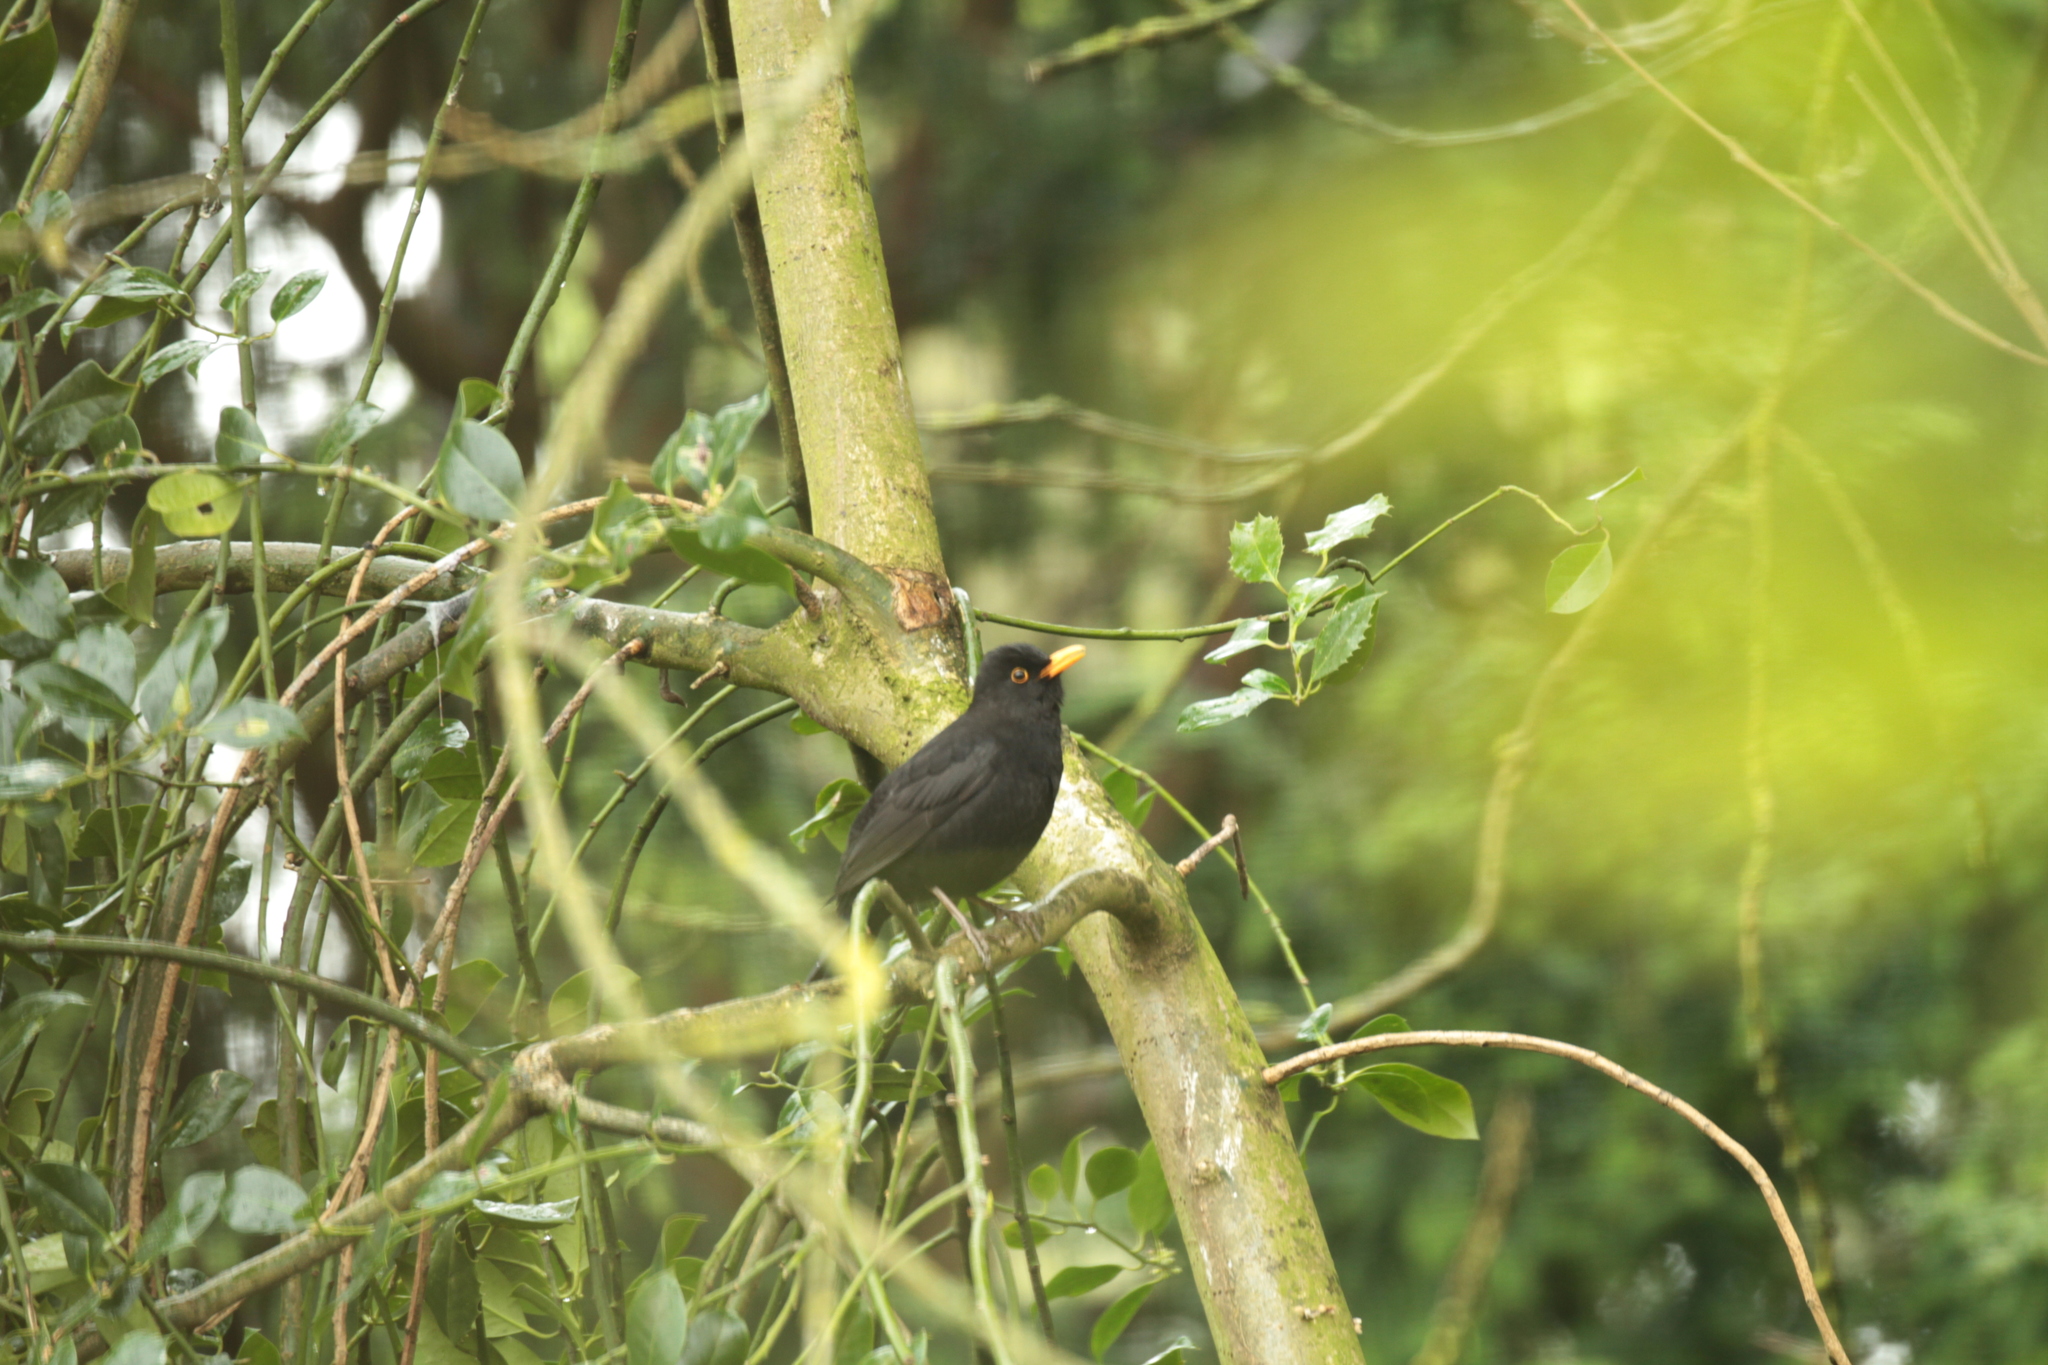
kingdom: Animalia
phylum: Chordata
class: Aves
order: Passeriformes
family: Turdidae
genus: Turdus
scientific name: Turdus merula
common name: Common blackbird
